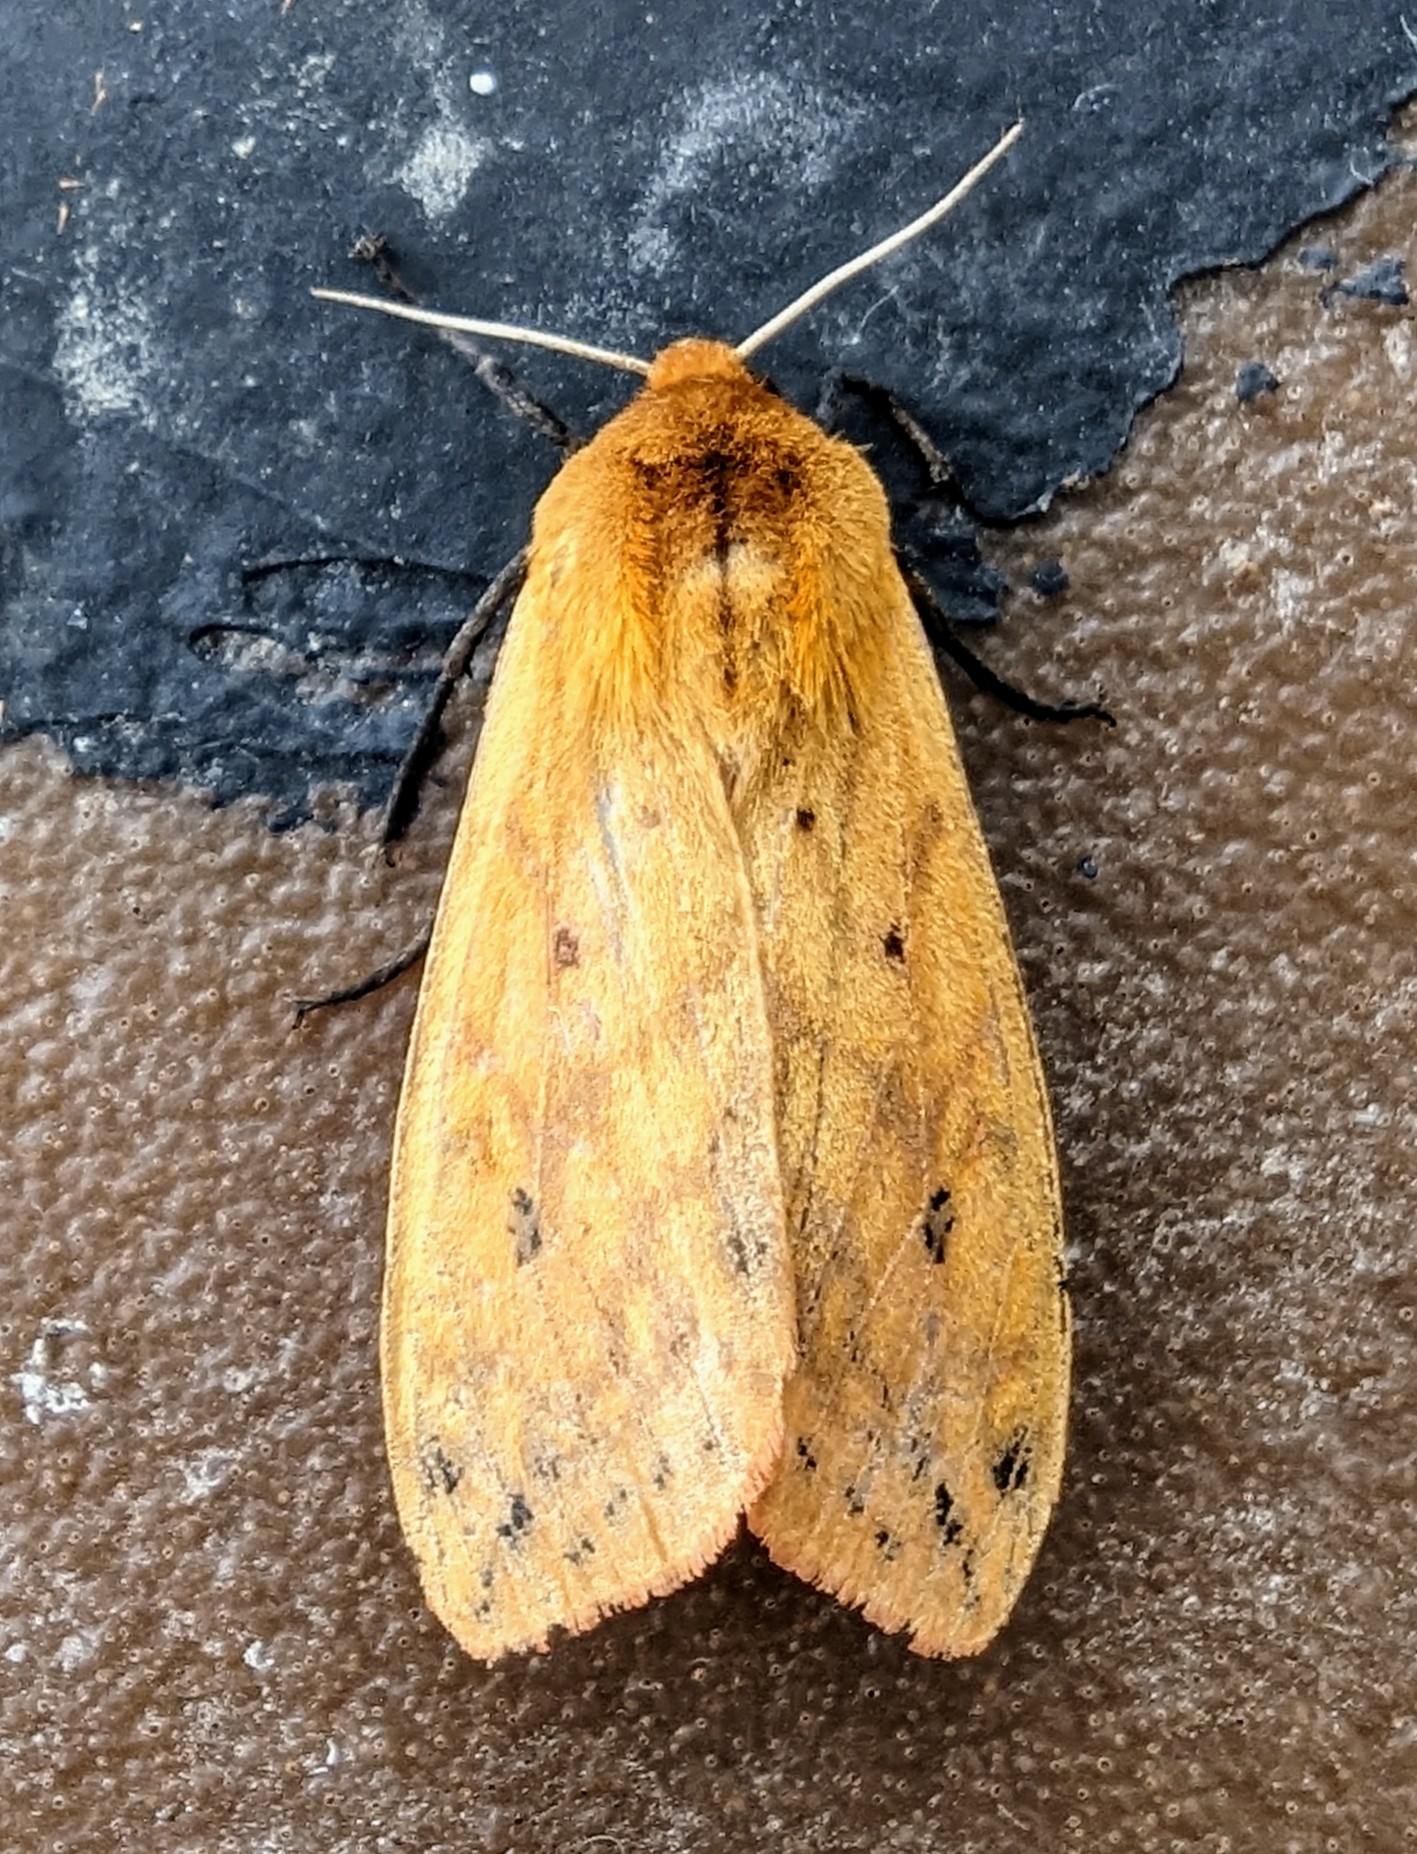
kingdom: Animalia
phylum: Arthropoda
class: Insecta
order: Lepidoptera
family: Erebidae
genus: Pyrrharctia
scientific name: Pyrrharctia isabella
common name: Isabella tiger moth
